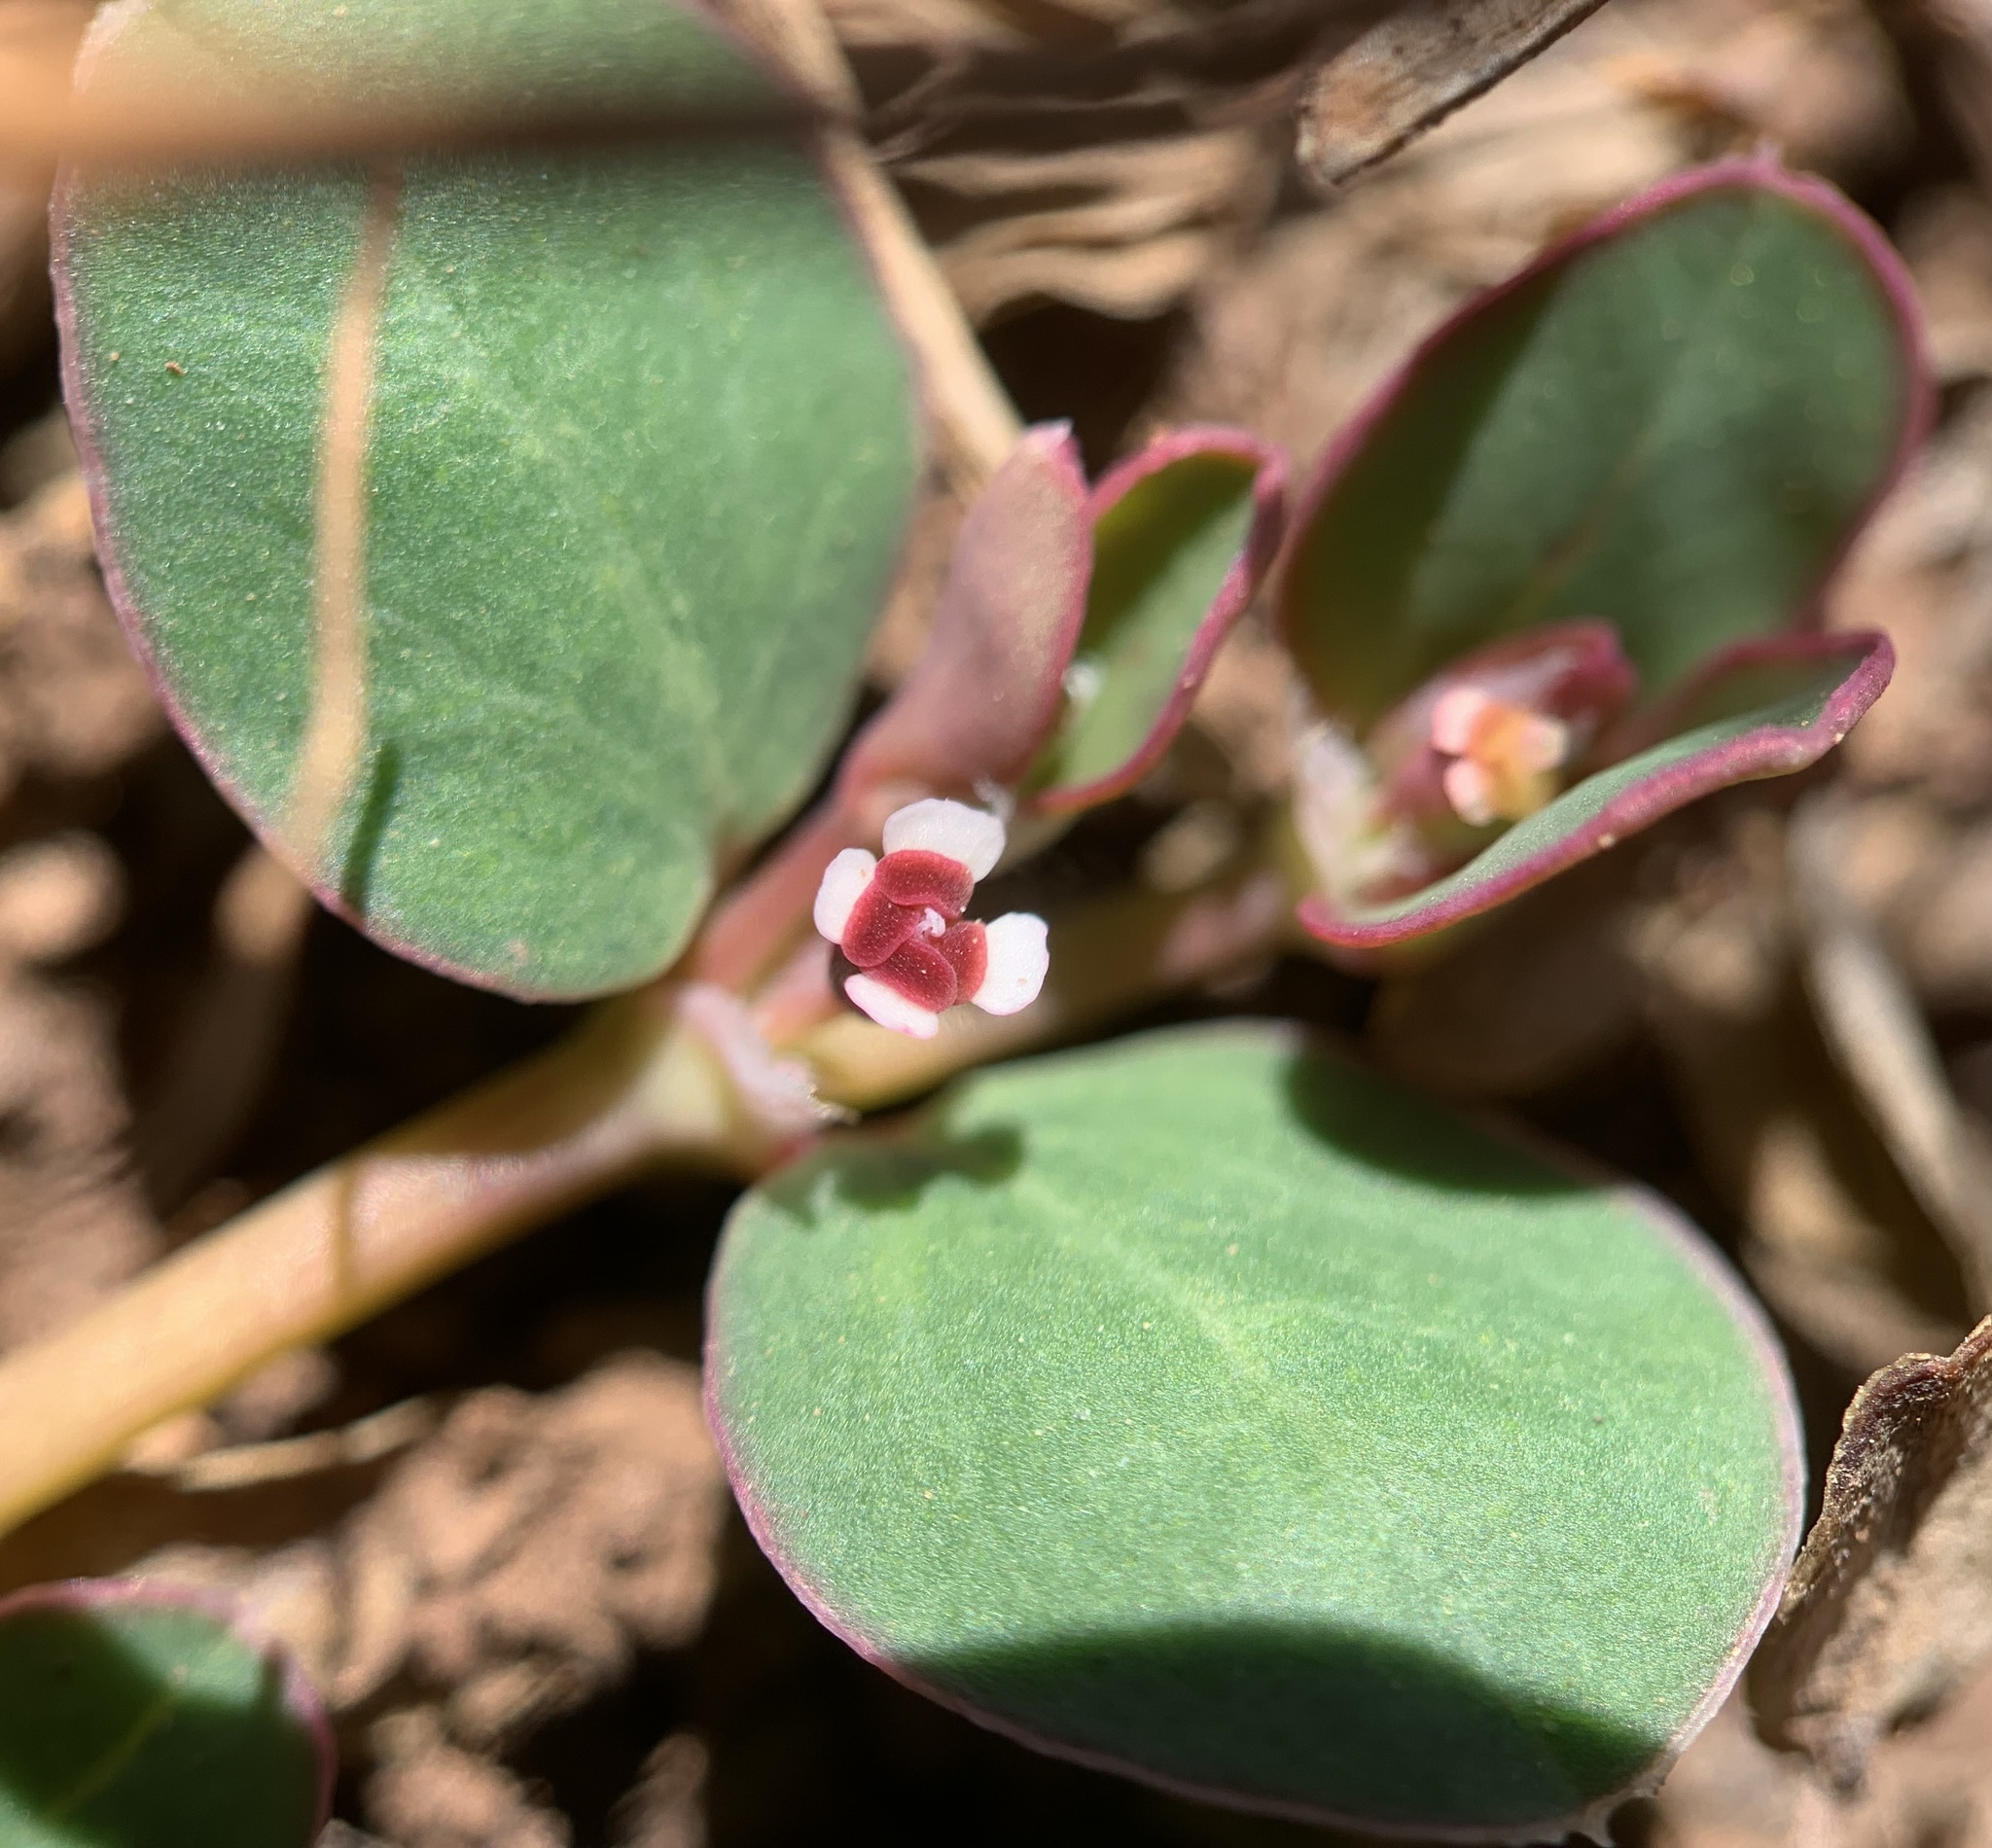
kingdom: Plantae
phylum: Tracheophyta
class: Magnoliopsida
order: Malpighiales
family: Euphorbiaceae
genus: Euphorbia
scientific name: Euphorbia albomarginata
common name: Whitemargin sandmat
